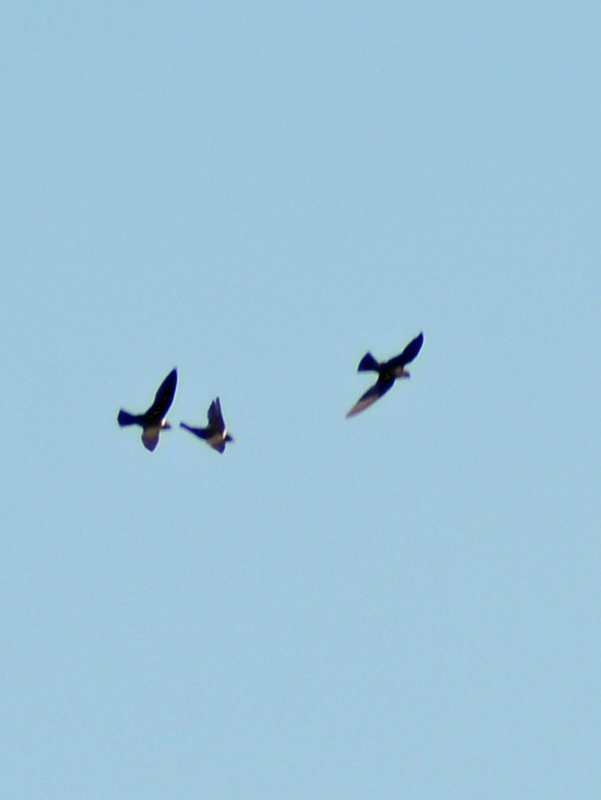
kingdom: Animalia
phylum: Chordata
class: Aves
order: Passeriformes
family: Hirundinidae
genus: Tachycineta
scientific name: Tachycineta thalassina
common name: Violet-green swallow
